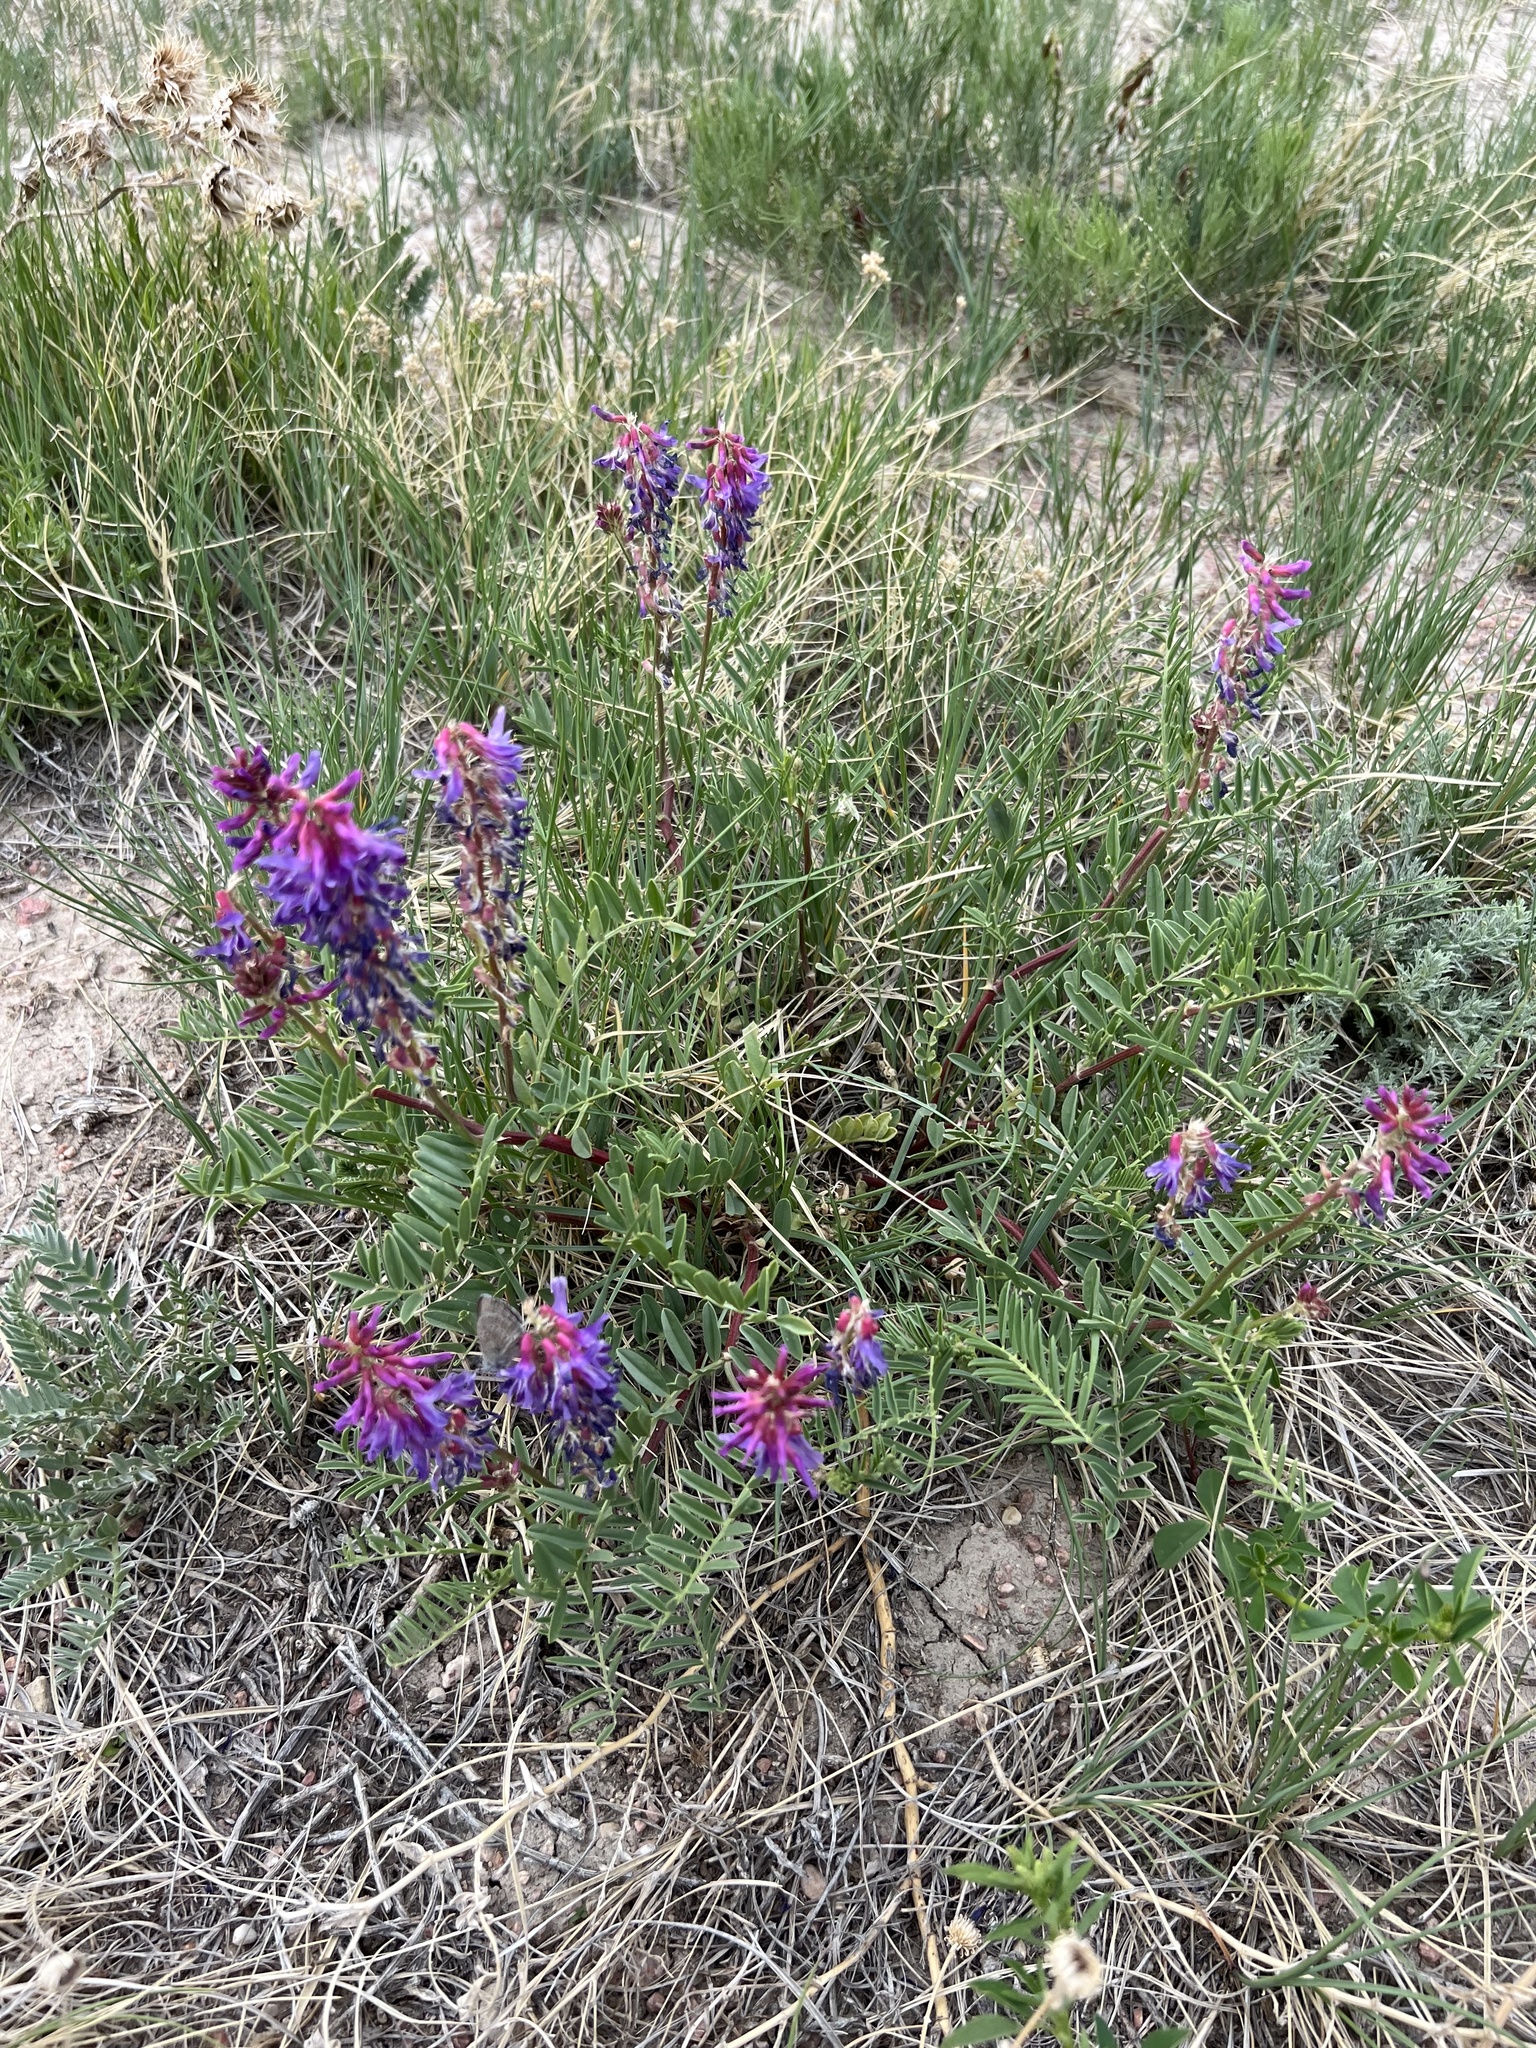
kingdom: Plantae
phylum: Tracheophyta
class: Magnoliopsida
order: Fabales
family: Fabaceae
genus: Astragalus
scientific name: Astragalus bisulcatus
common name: Two-groove milk-vetch
